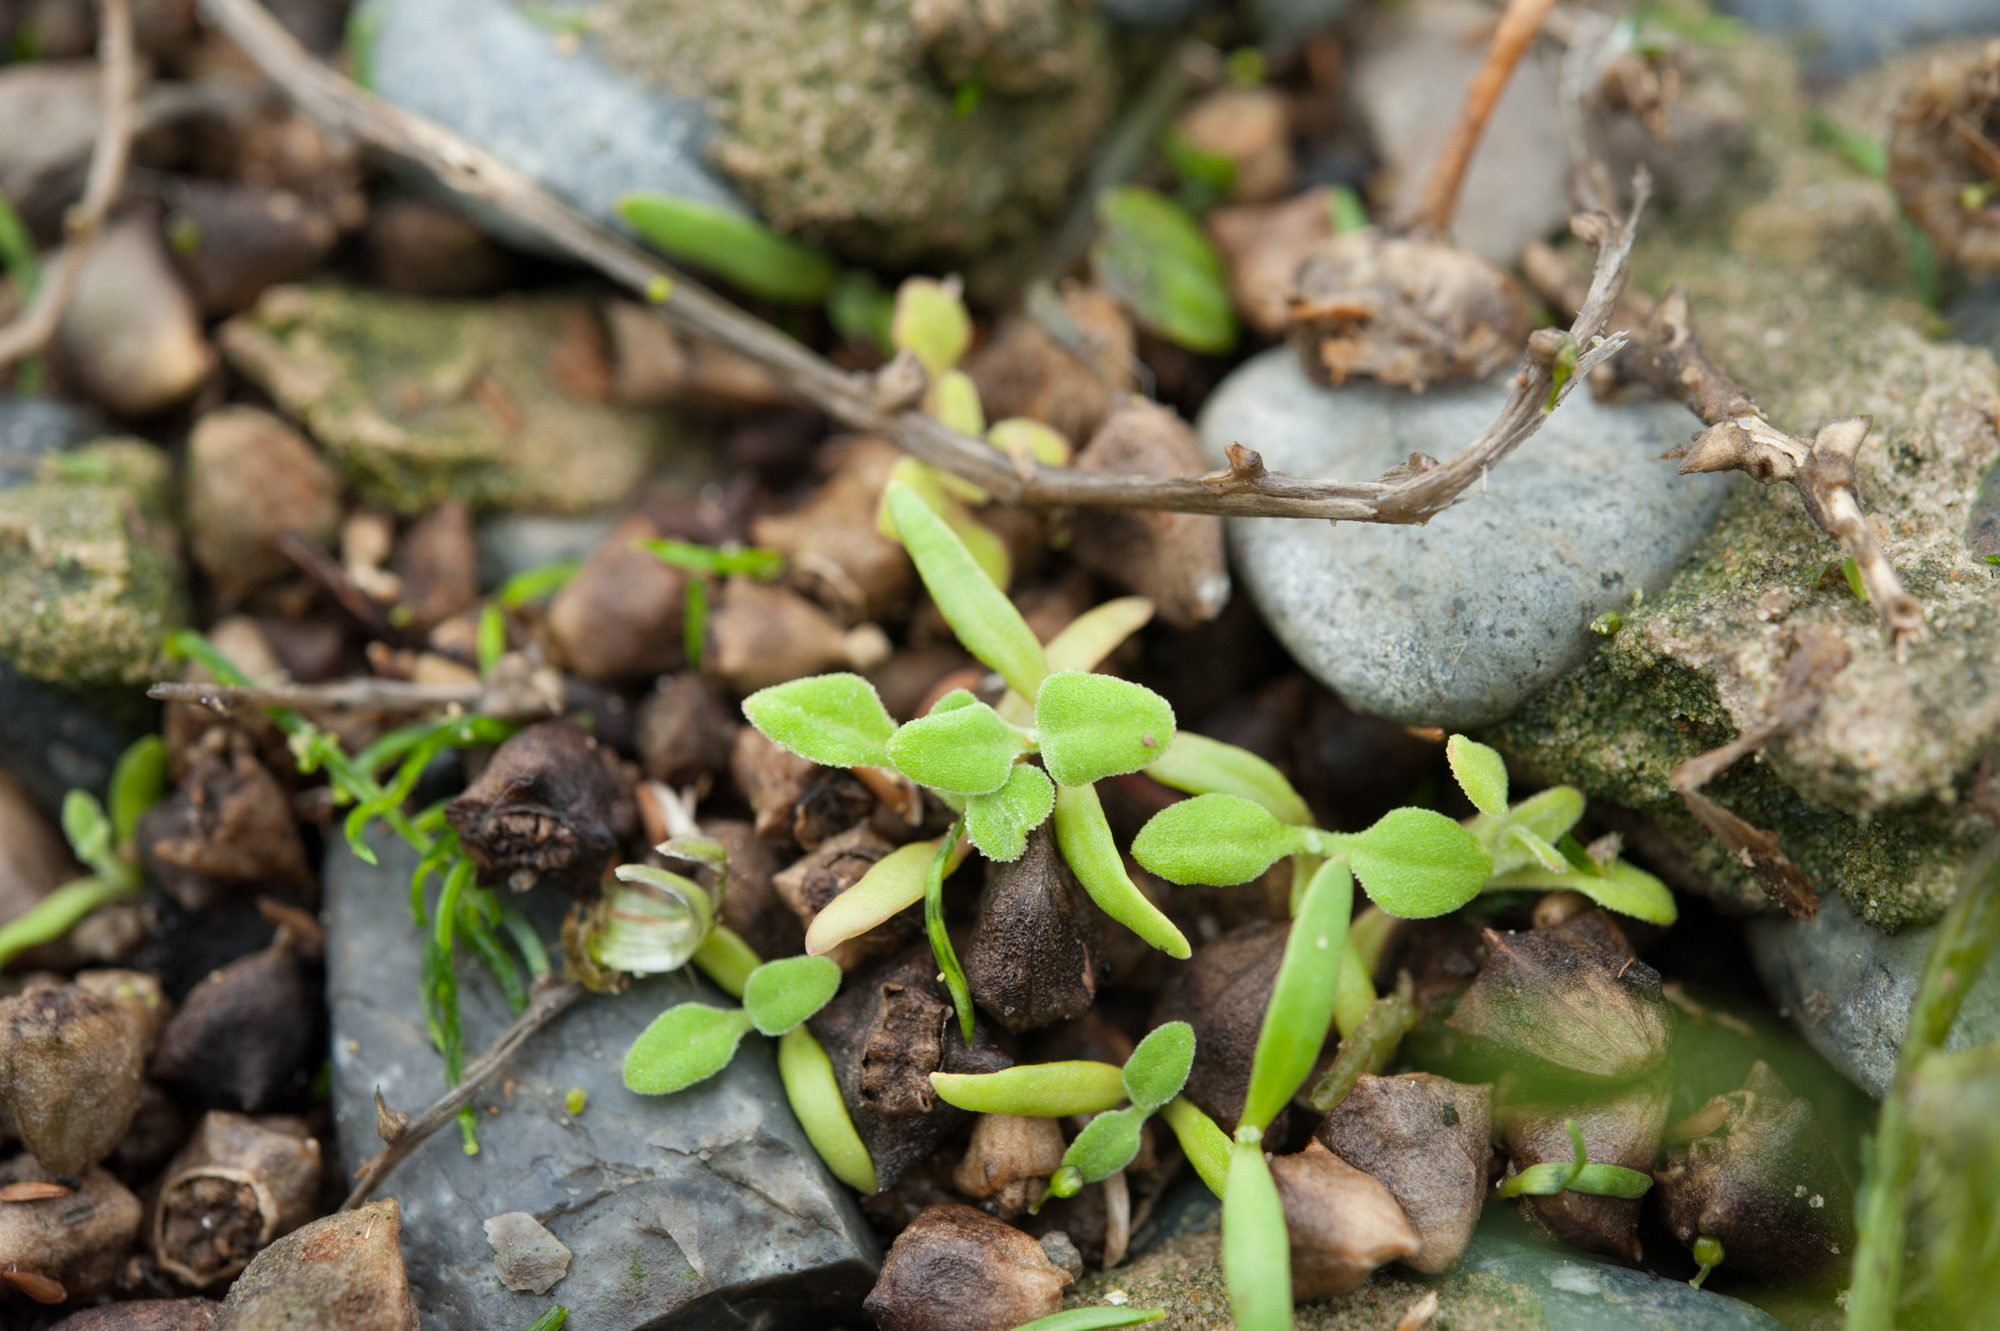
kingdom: Plantae
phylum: Tracheophyta
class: Magnoliopsida
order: Caryophyllales
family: Aizoaceae
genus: Tetragonia
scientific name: Tetragonia tetragonoides
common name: New zealand-spinach
